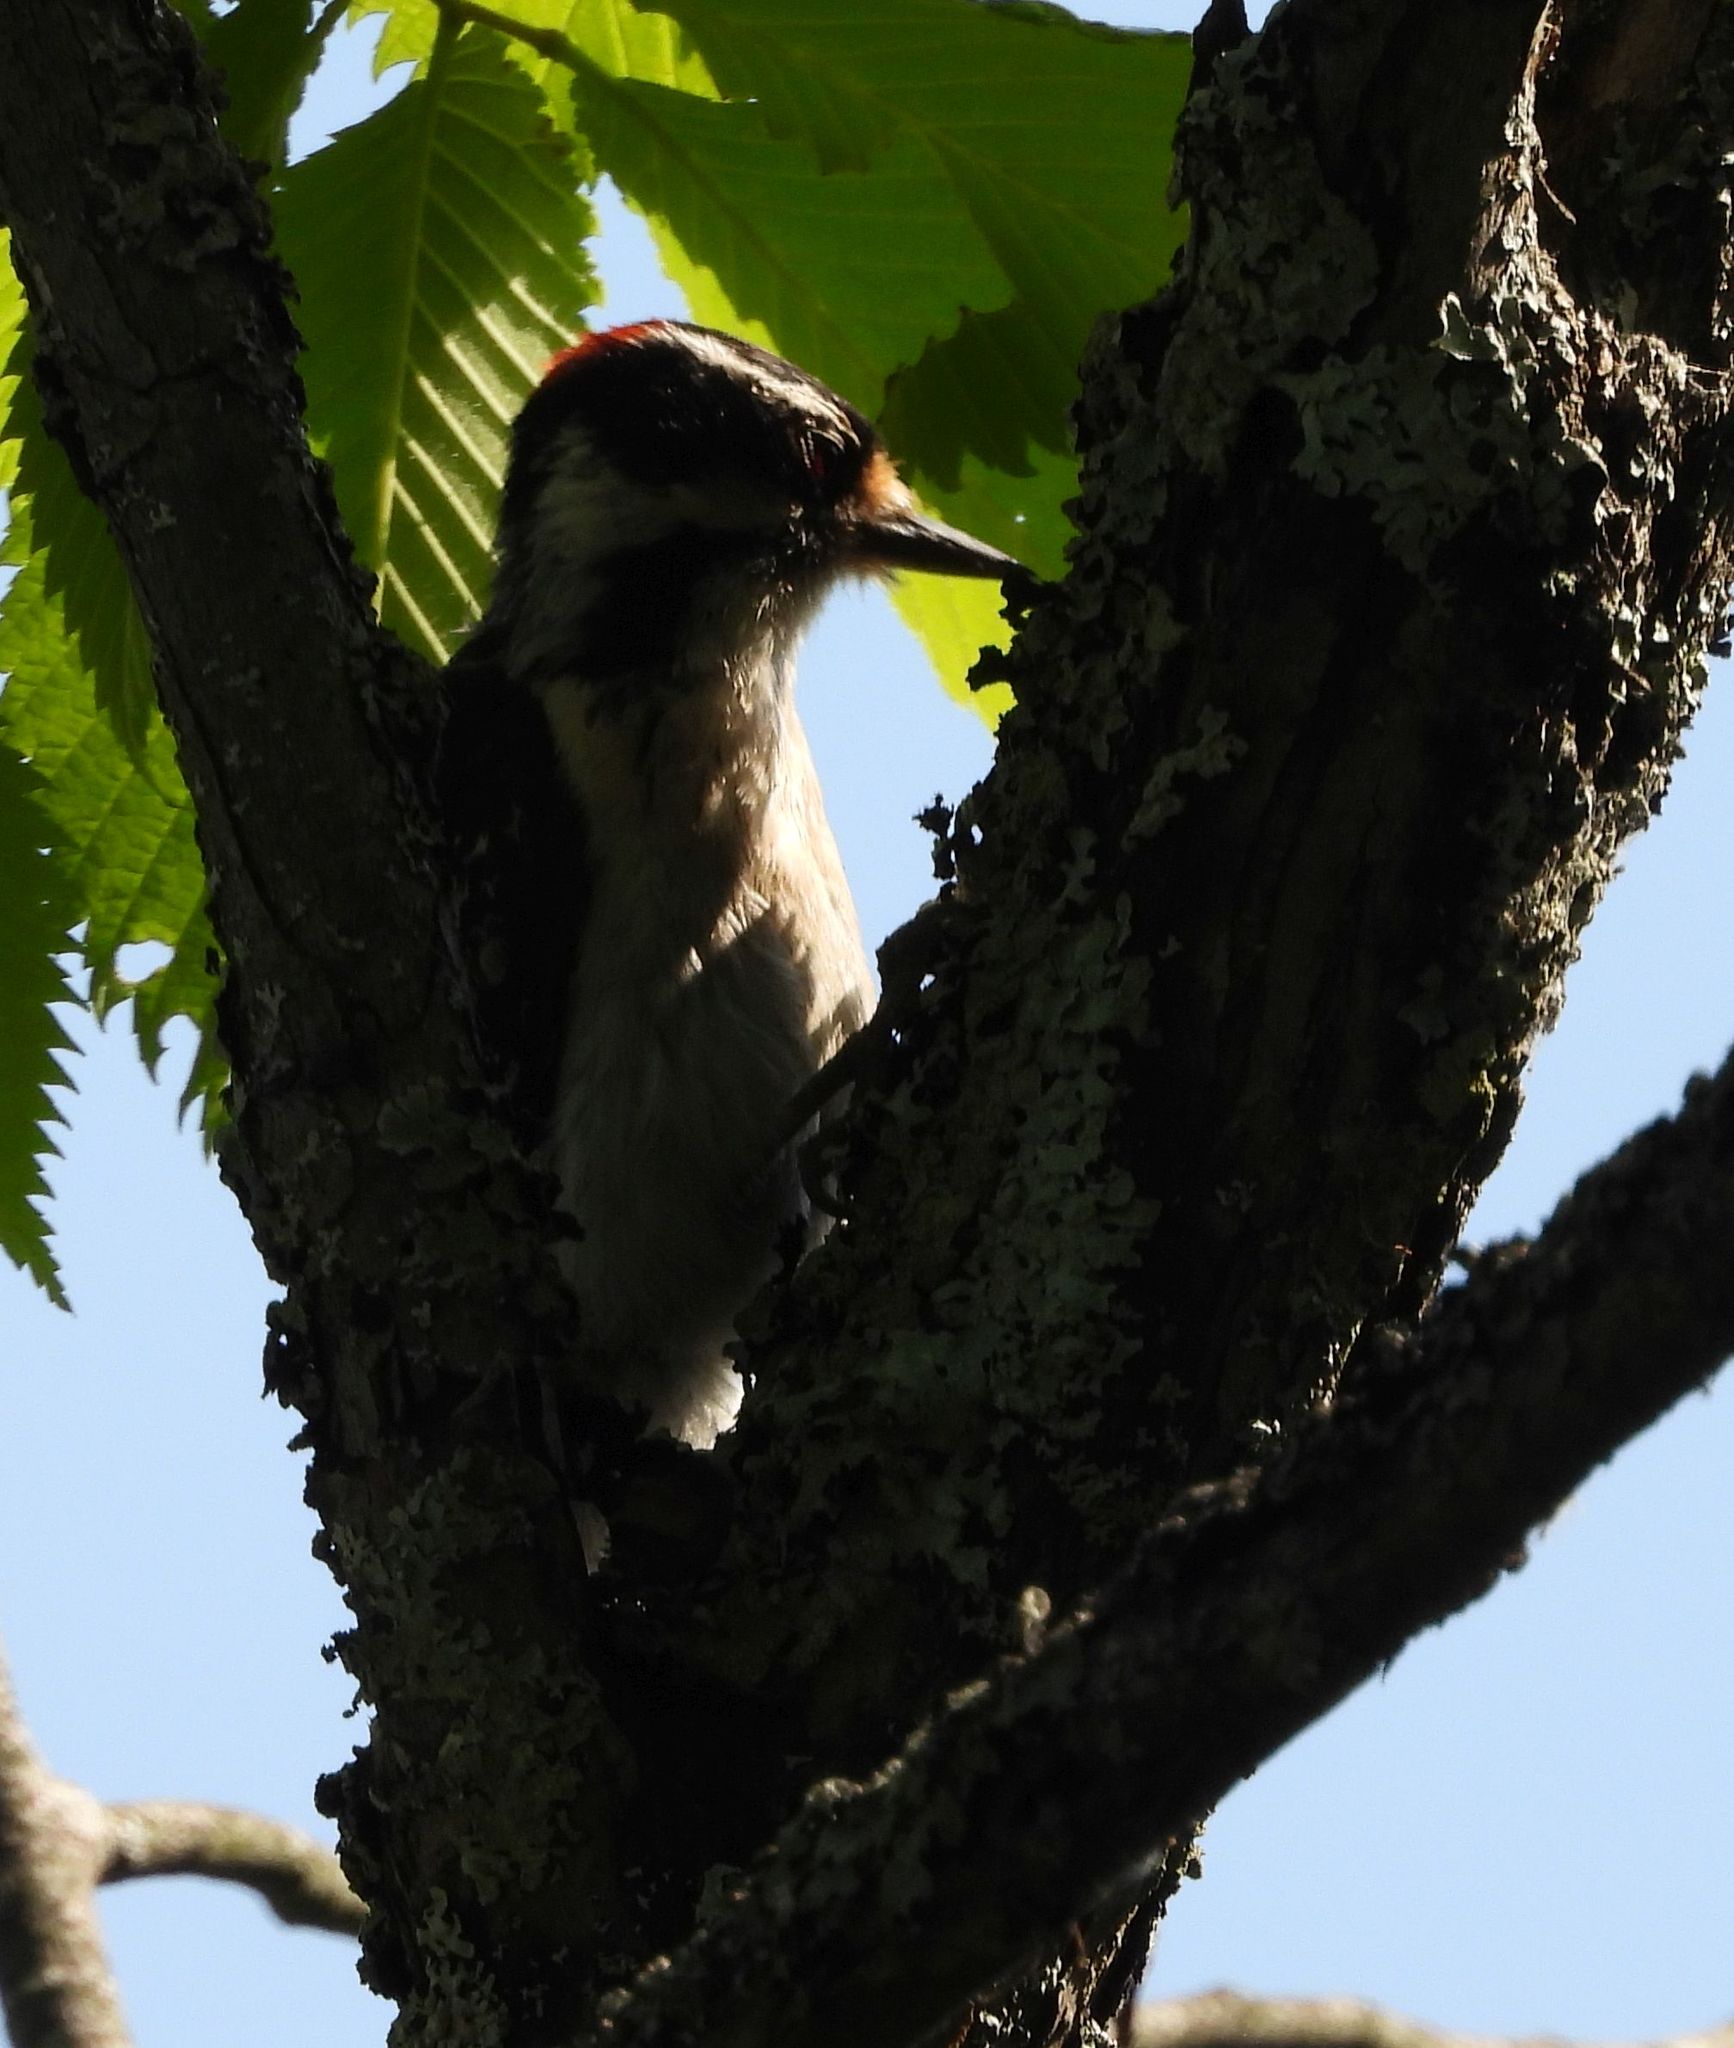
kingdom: Animalia
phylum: Chordata
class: Aves
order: Piciformes
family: Picidae
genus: Dryobates
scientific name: Dryobates pubescens
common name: Downy woodpecker
